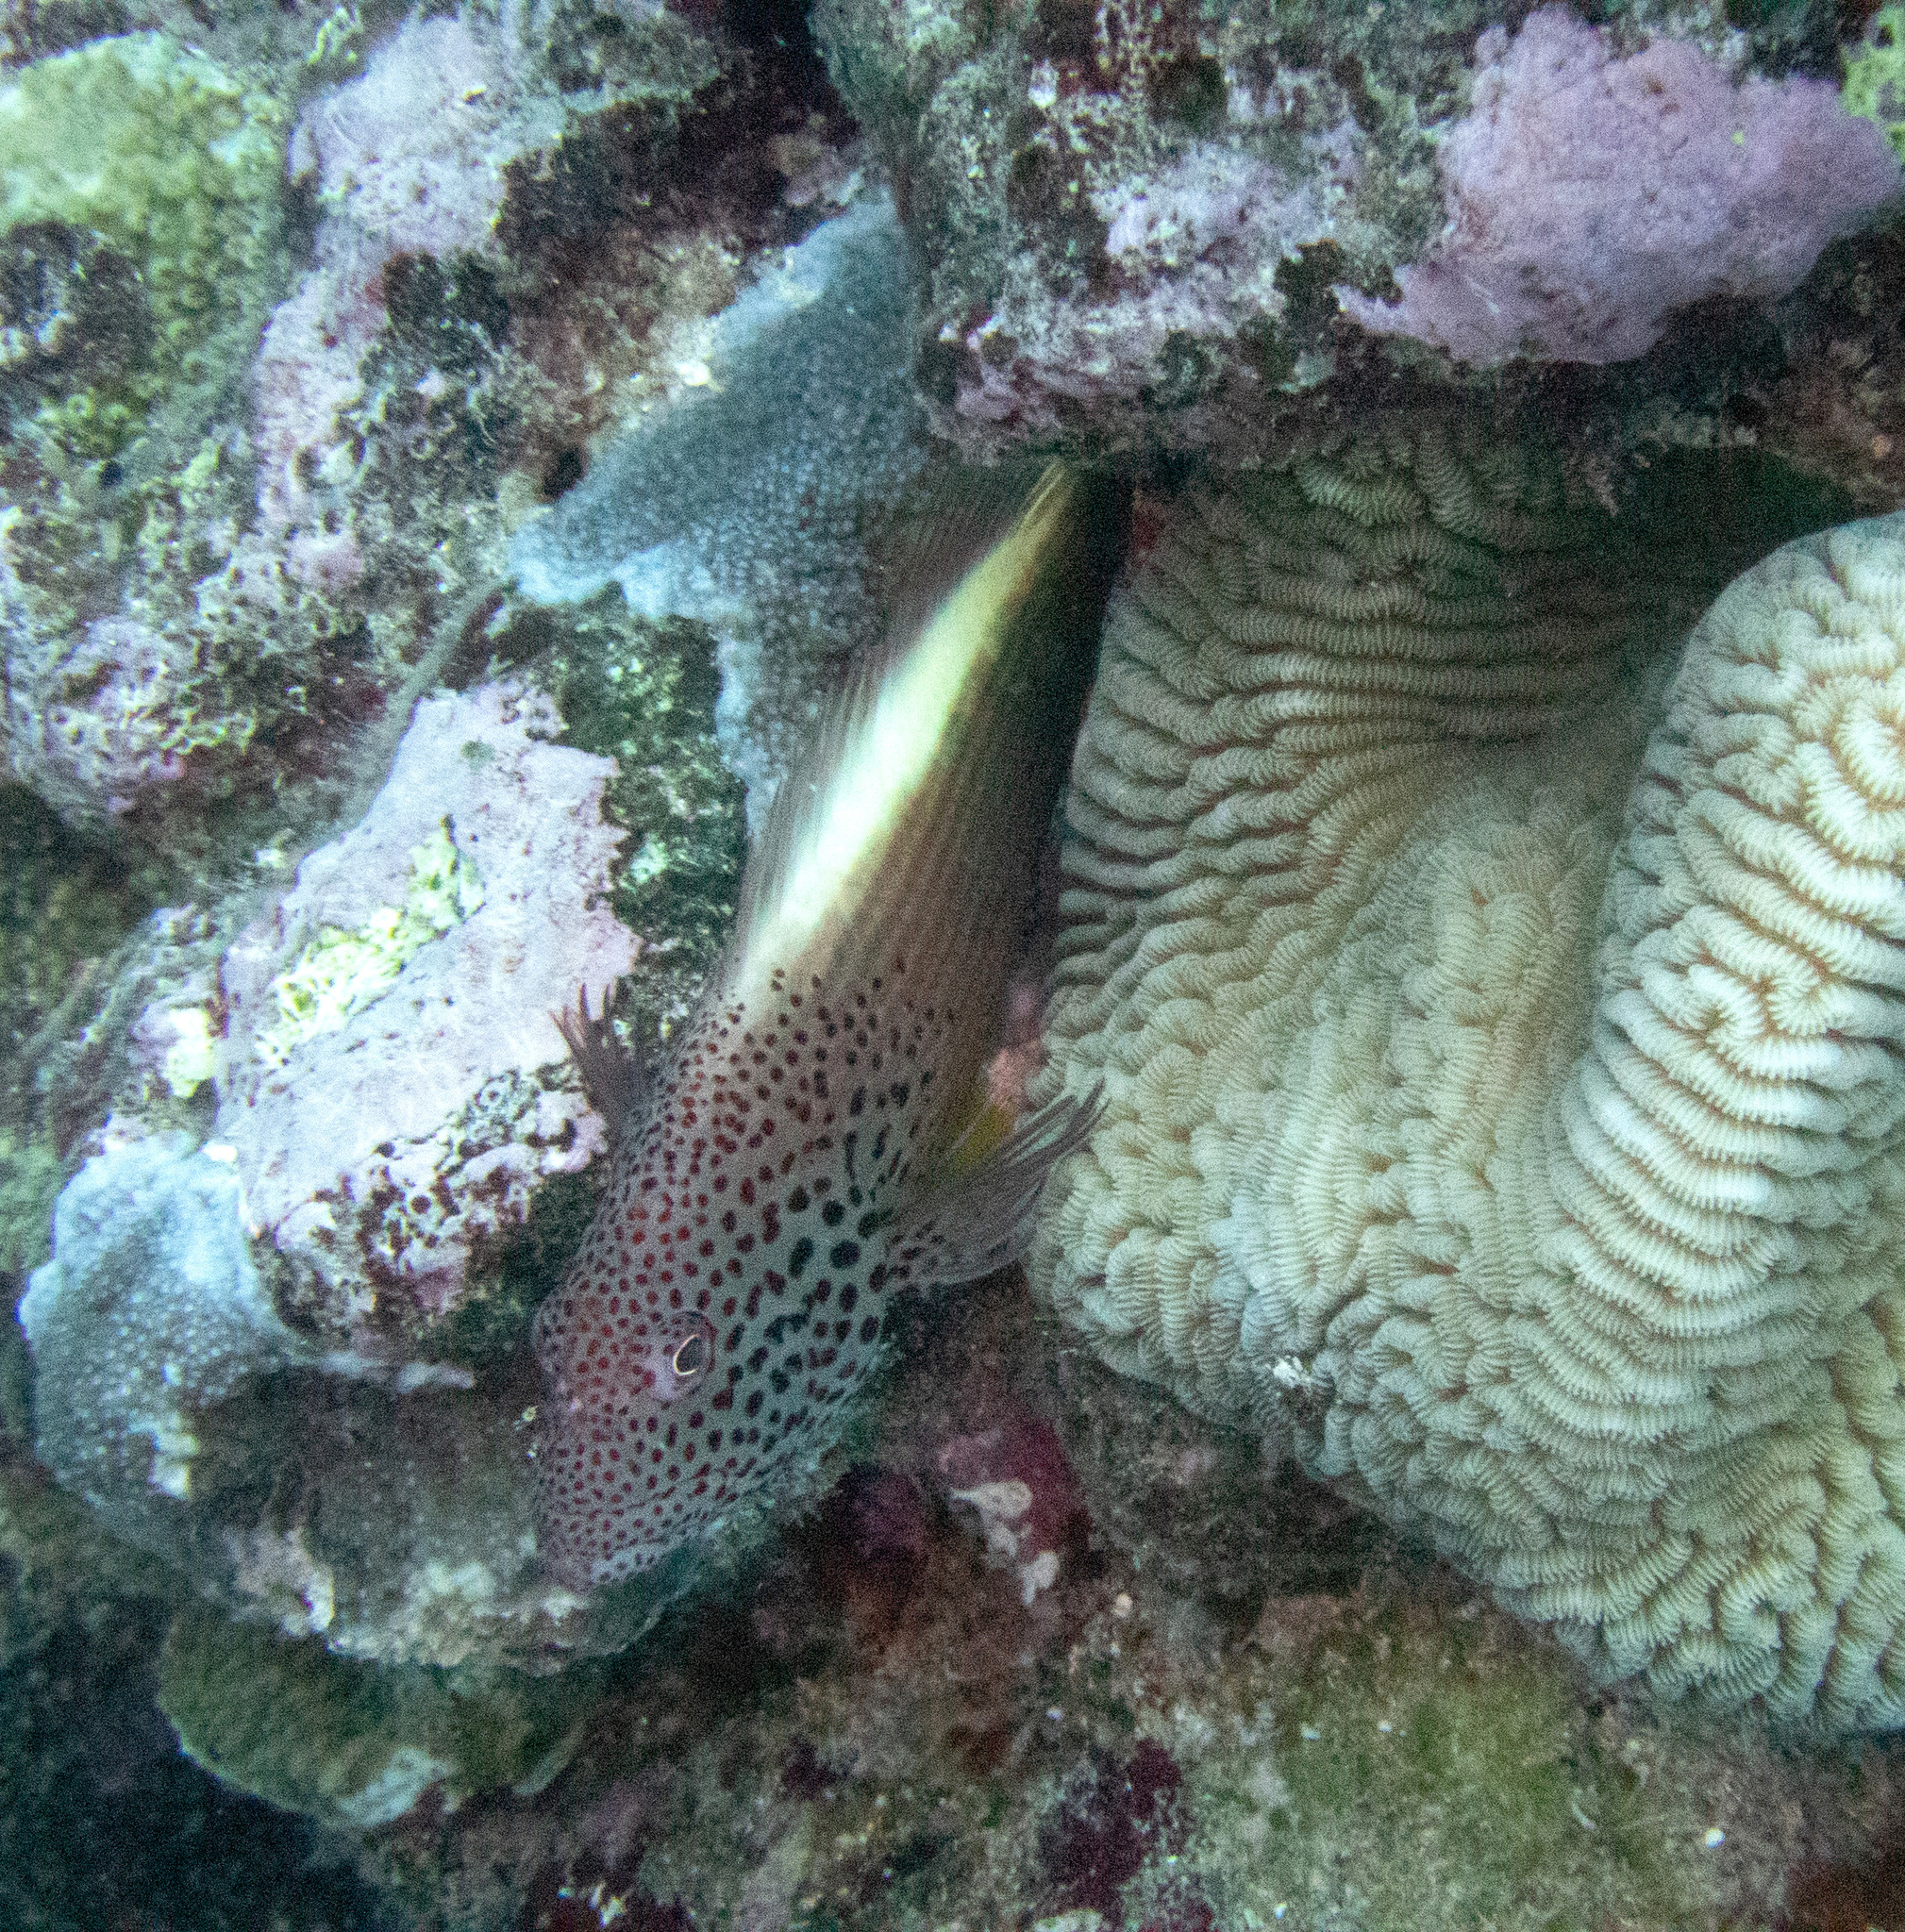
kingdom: Animalia
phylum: Chordata
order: Perciformes
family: Cirrhitidae
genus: Paracirrhites
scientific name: Paracirrhites forsteri
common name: Freckled hawkfish
